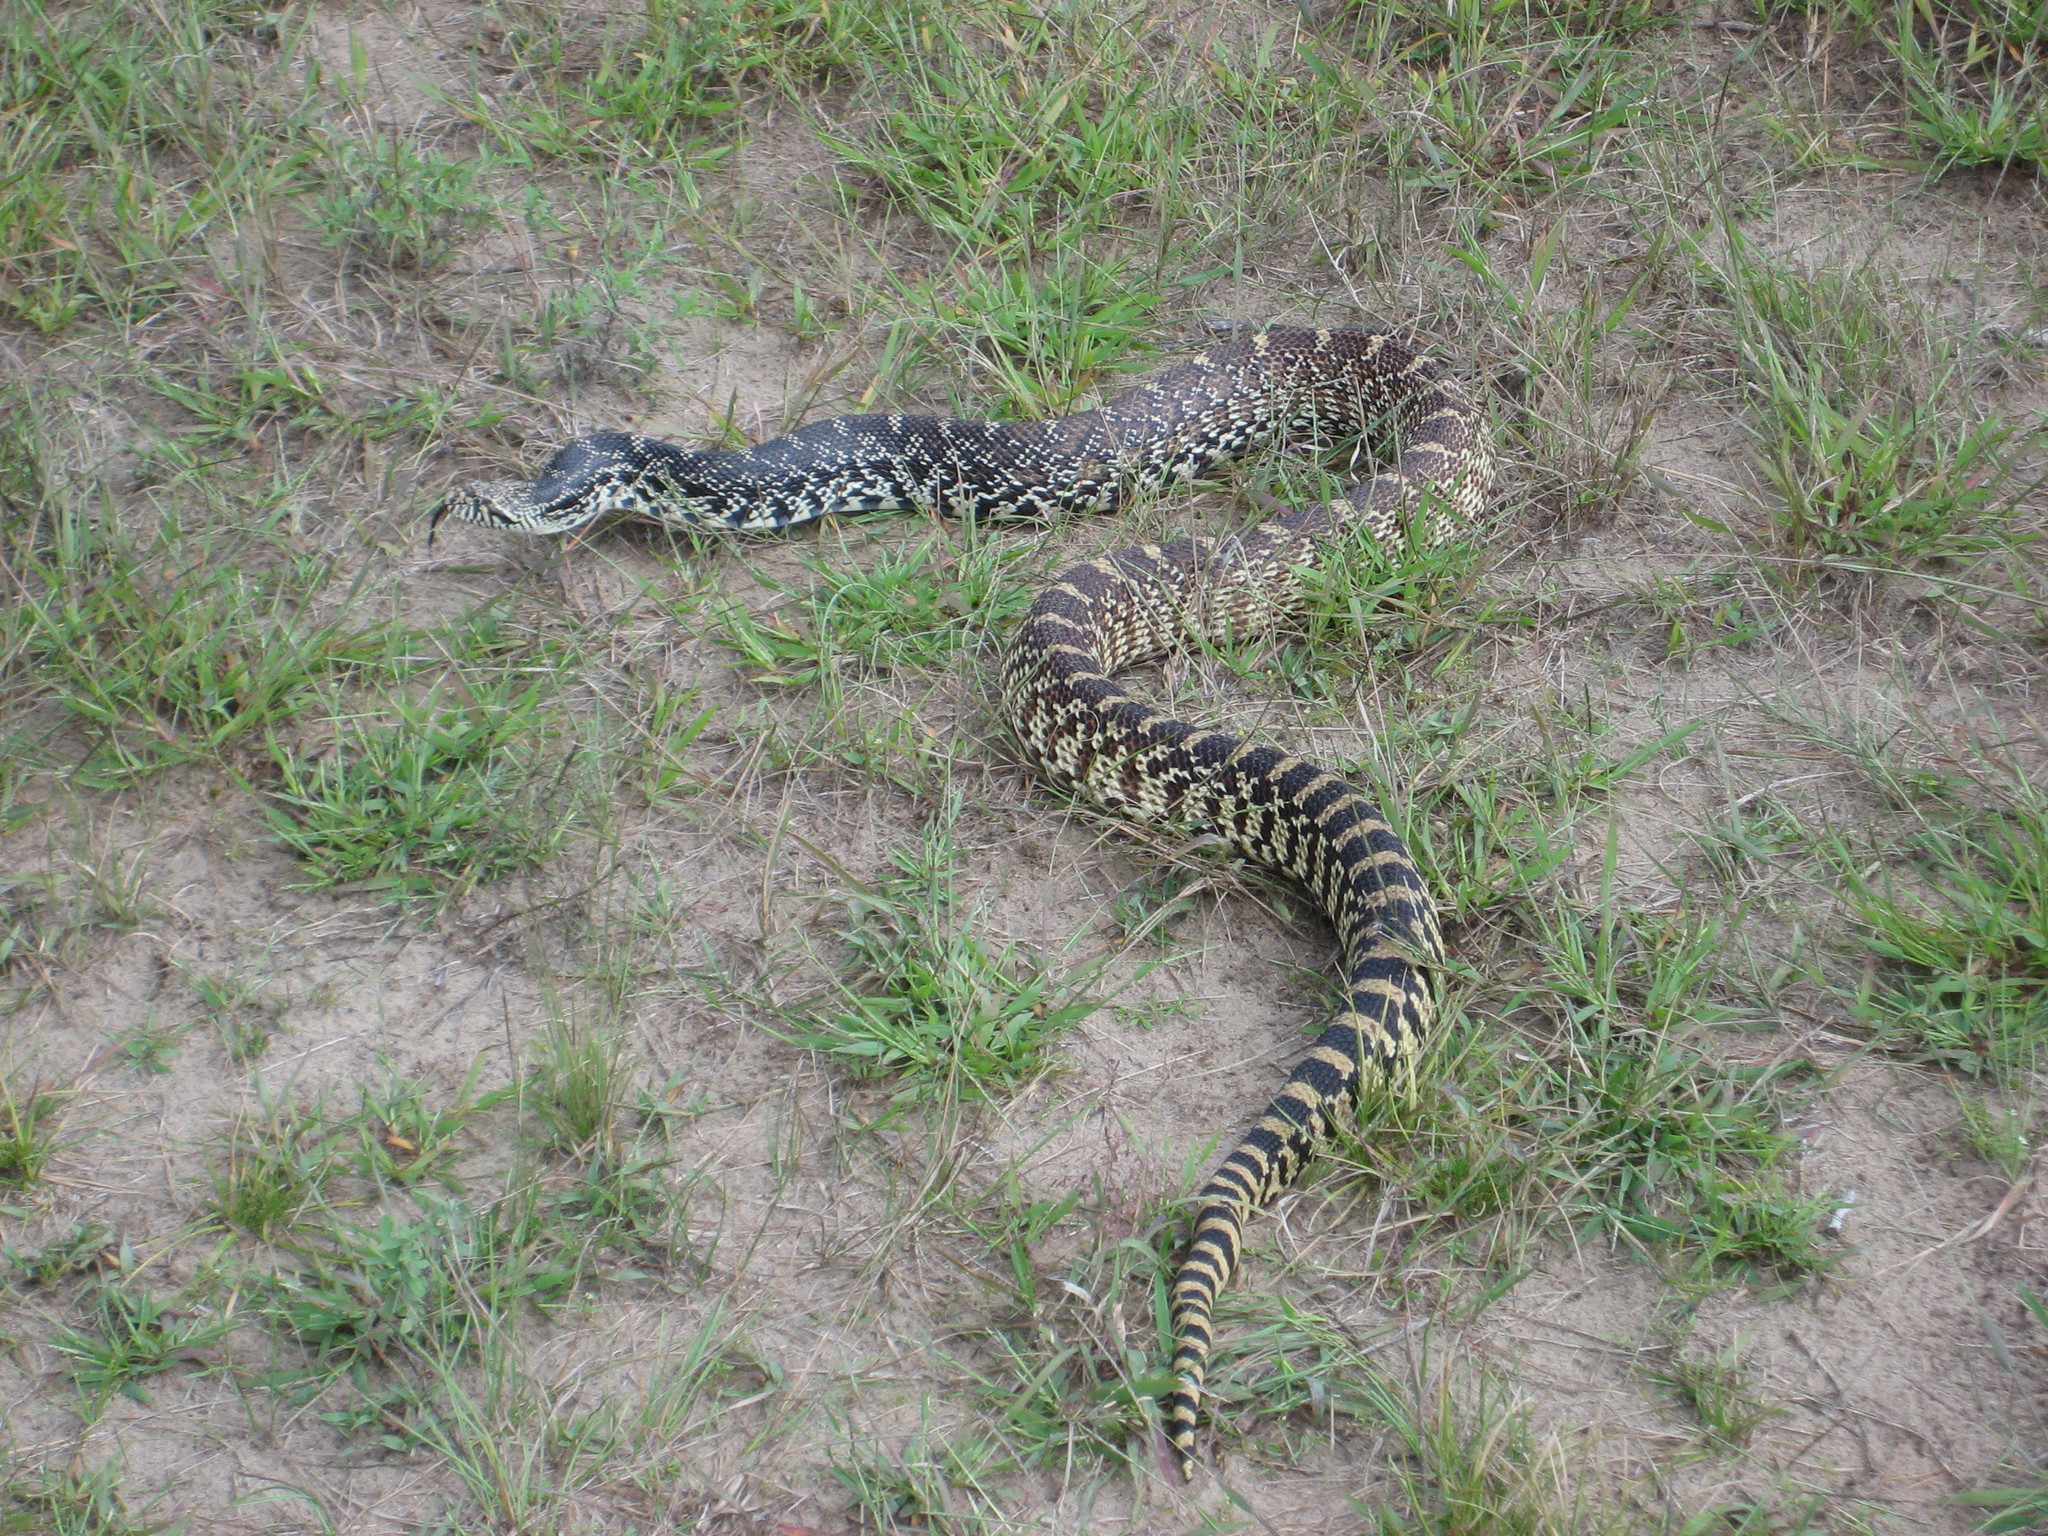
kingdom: Animalia
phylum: Chordata
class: Squamata
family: Colubridae
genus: Pituophis
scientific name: Pituophis catenifer
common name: Gopher snake
